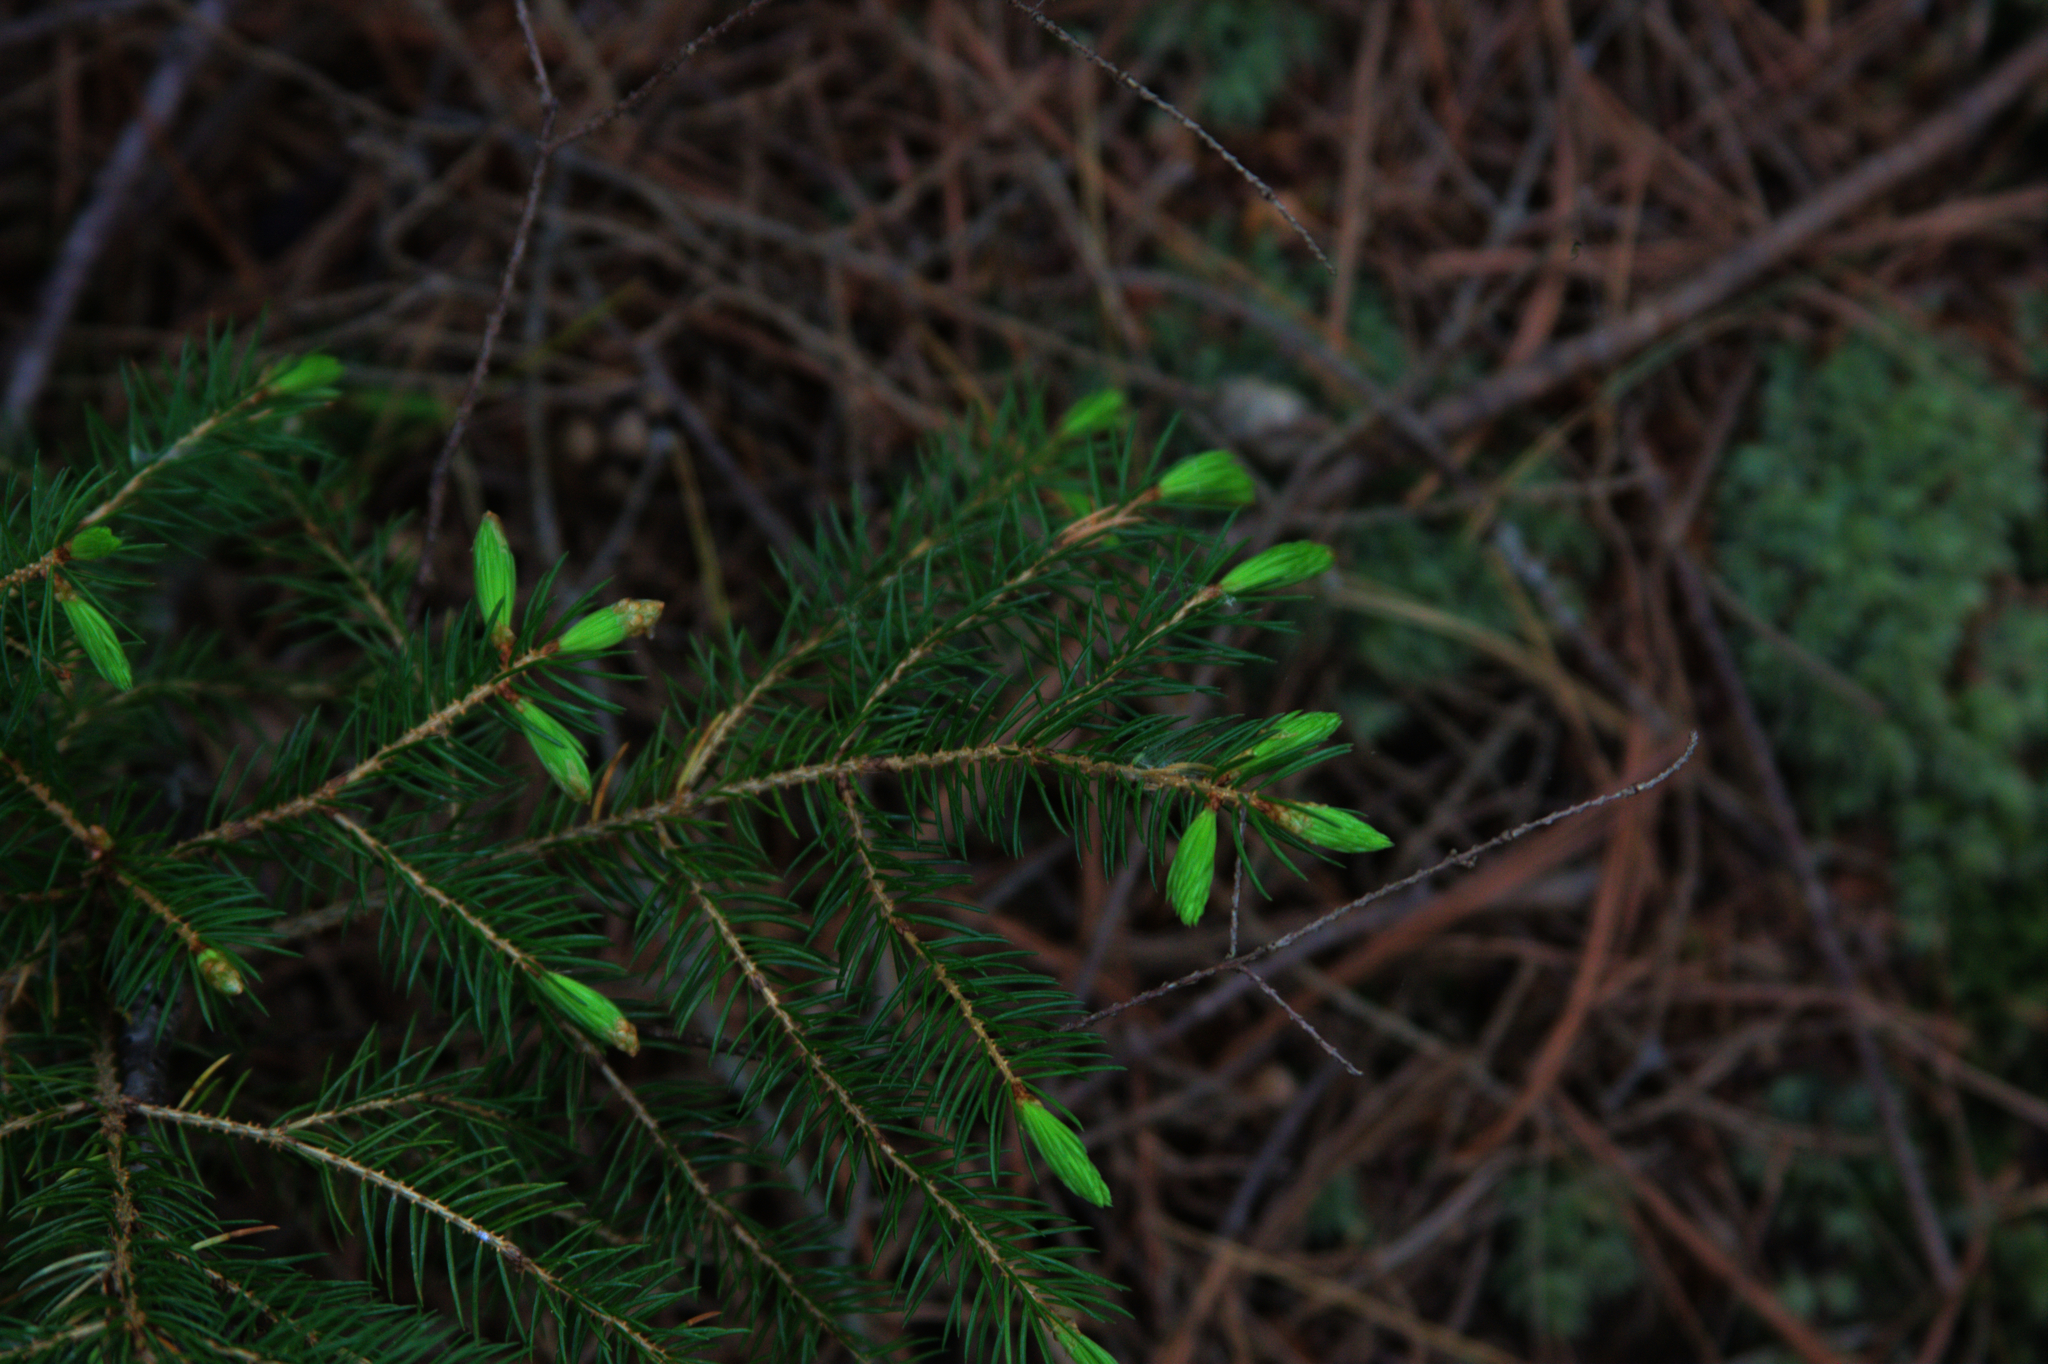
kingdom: Plantae
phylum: Tracheophyta
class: Pinopsida
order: Pinales
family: Pinaceae
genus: Picea
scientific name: Picea rubens
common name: Red spruce
